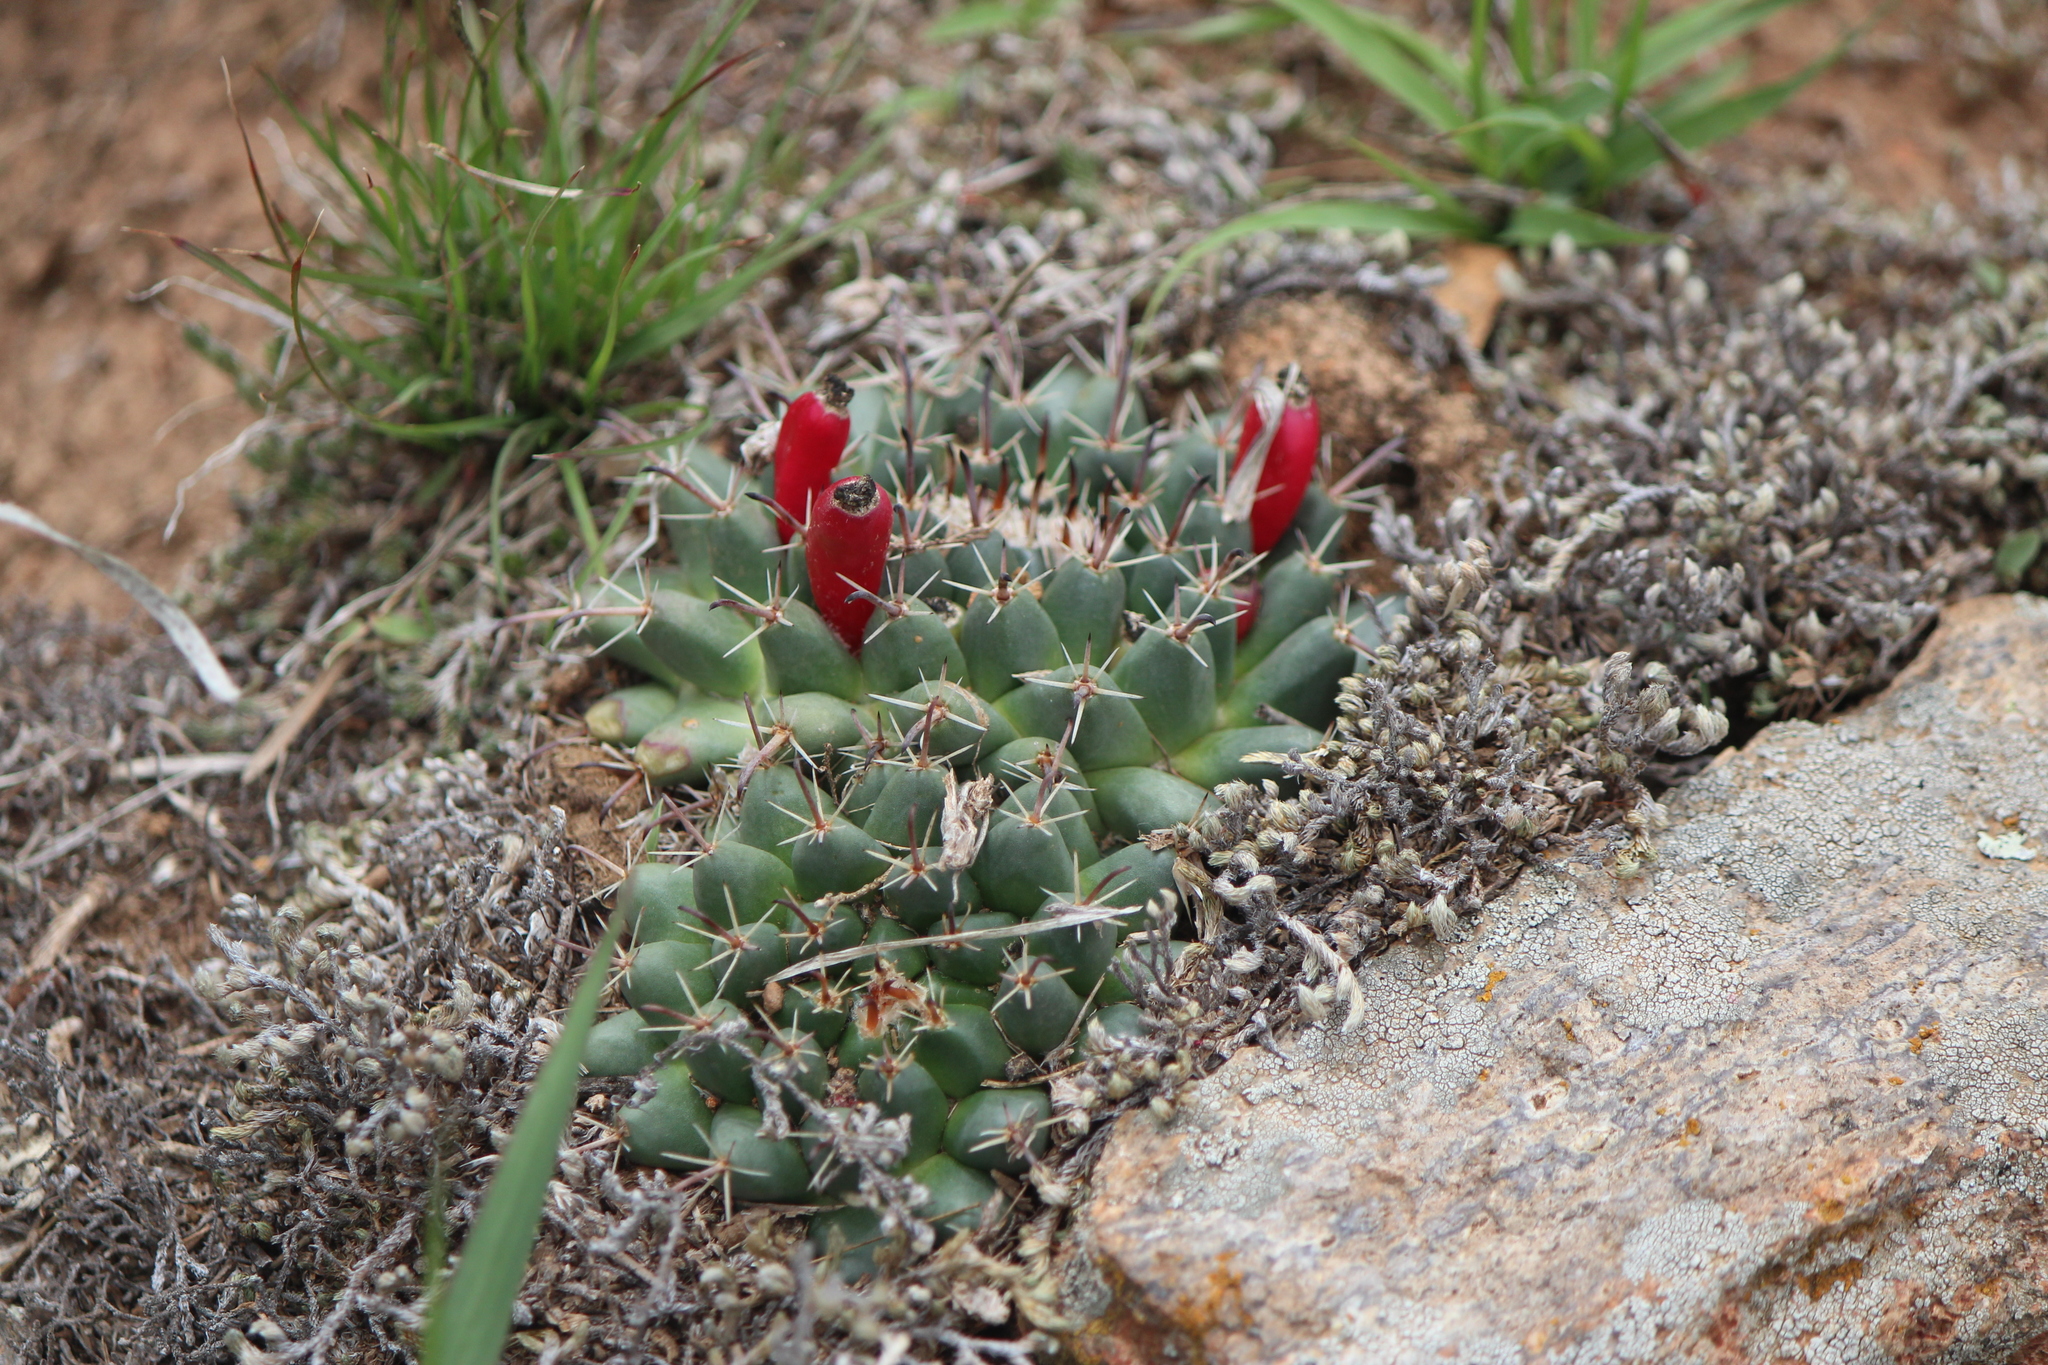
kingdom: Plantae
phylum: Tracheophyta
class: Magnoliopsida
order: Caryophyllales
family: Cactaceae
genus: Mammillaria
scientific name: Mammillaria uncinata
